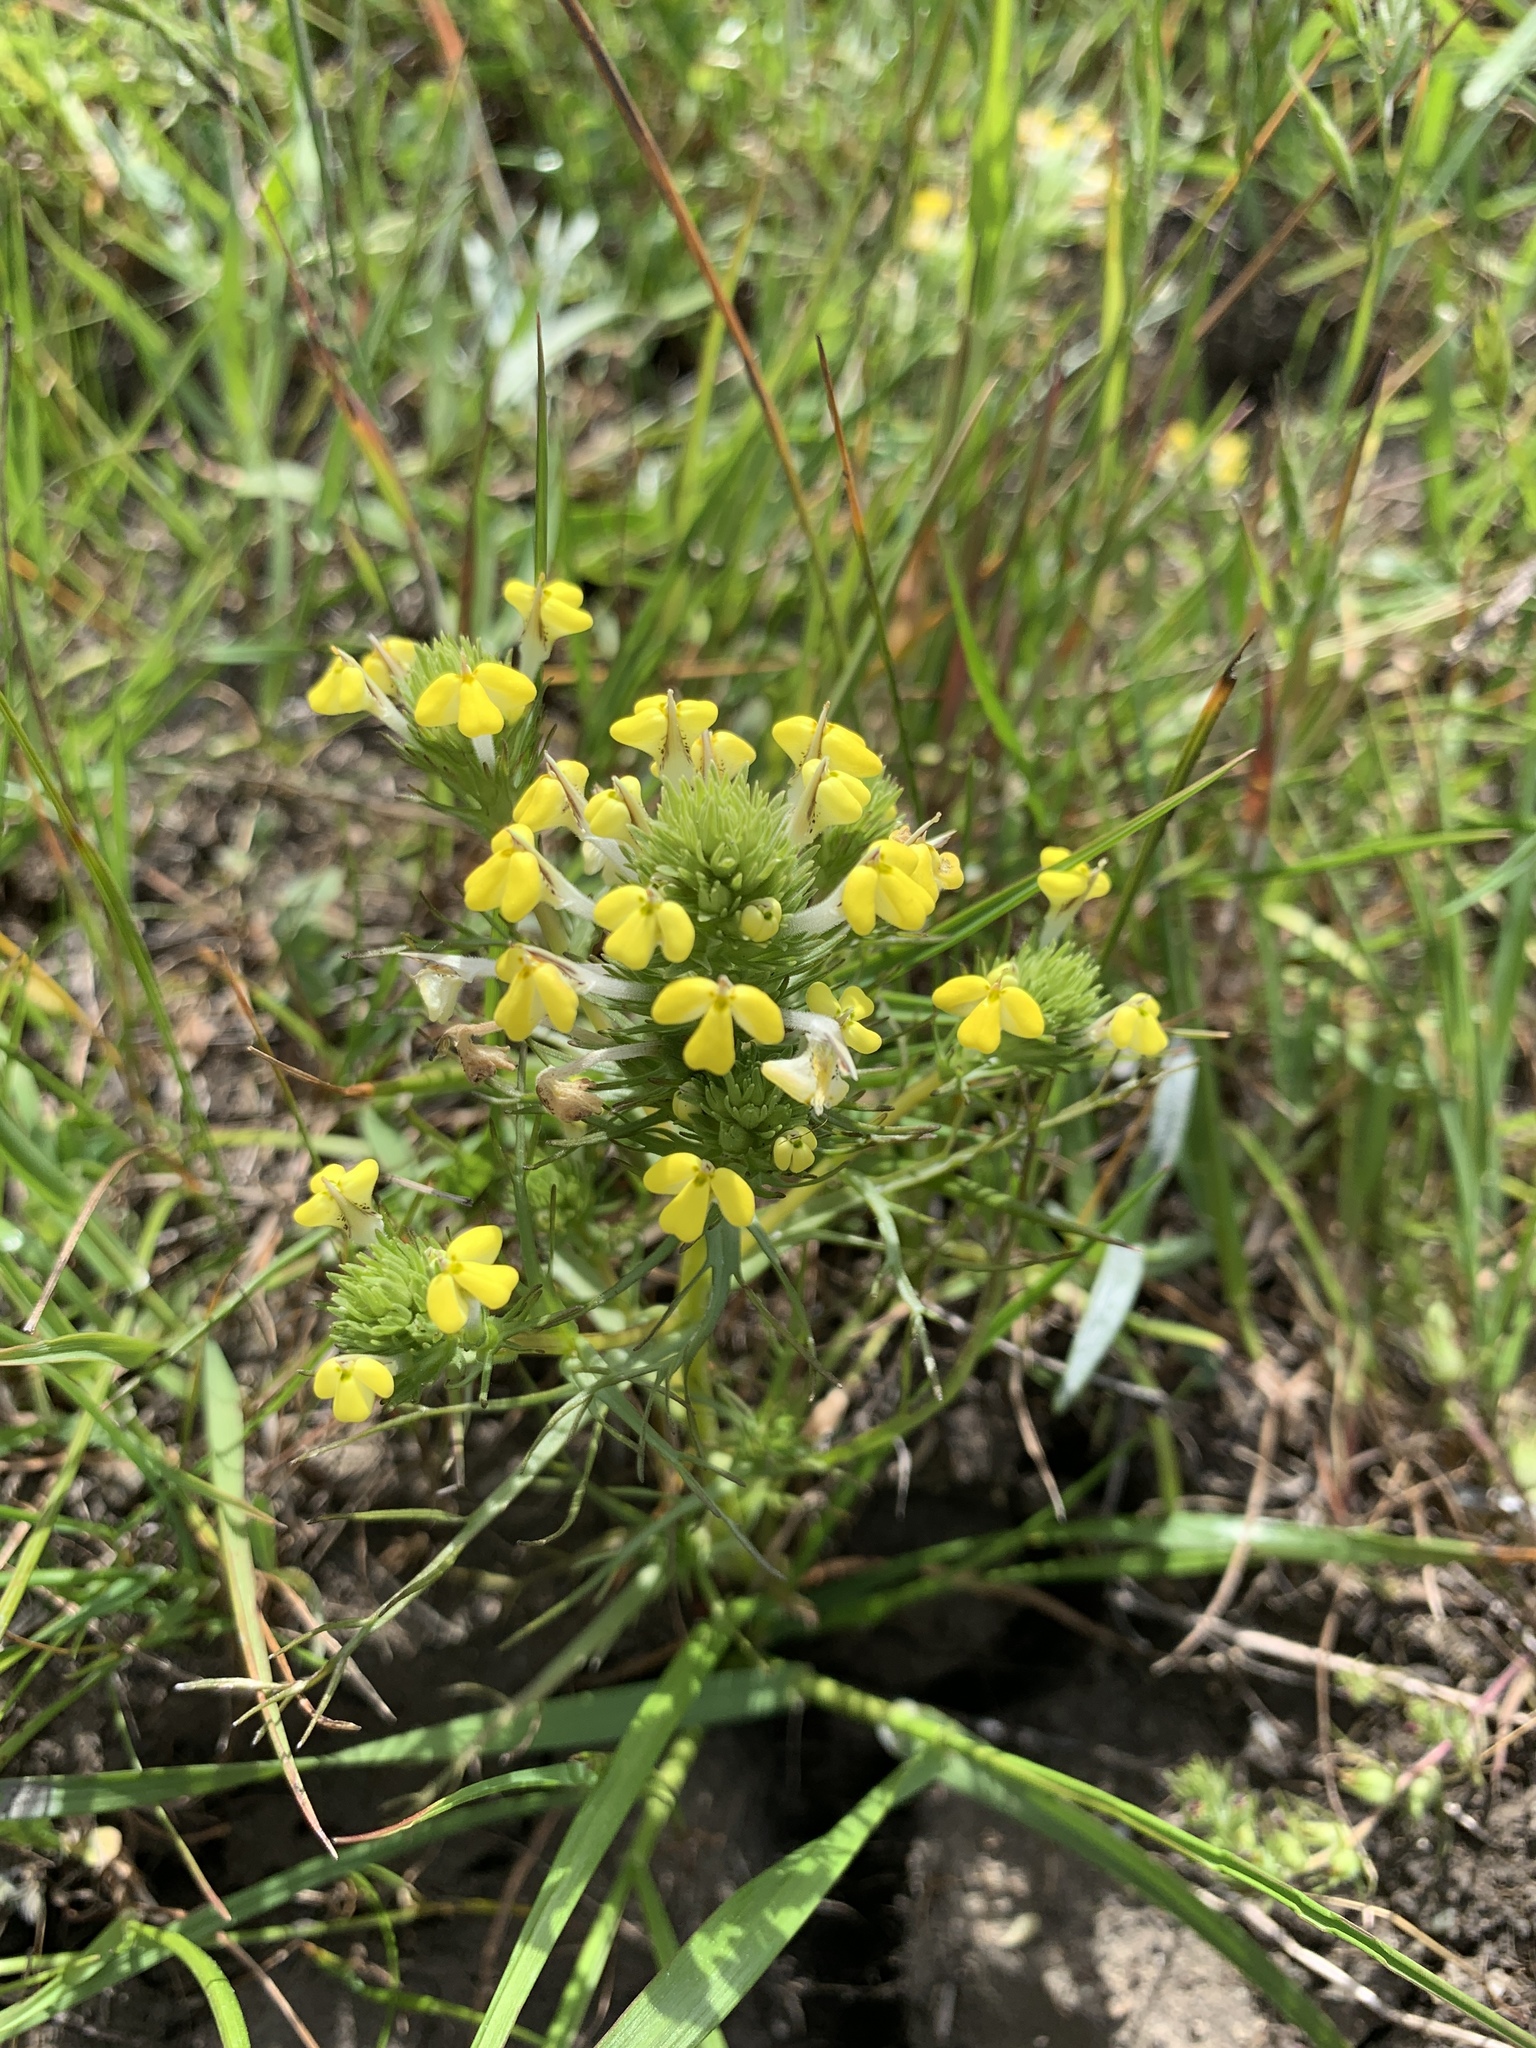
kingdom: Plantae
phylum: Tracheophyta
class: Magnoliopsida
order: Lamiales
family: Orobanchaceae
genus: Castilleja
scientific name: Castilleja rubicundula
